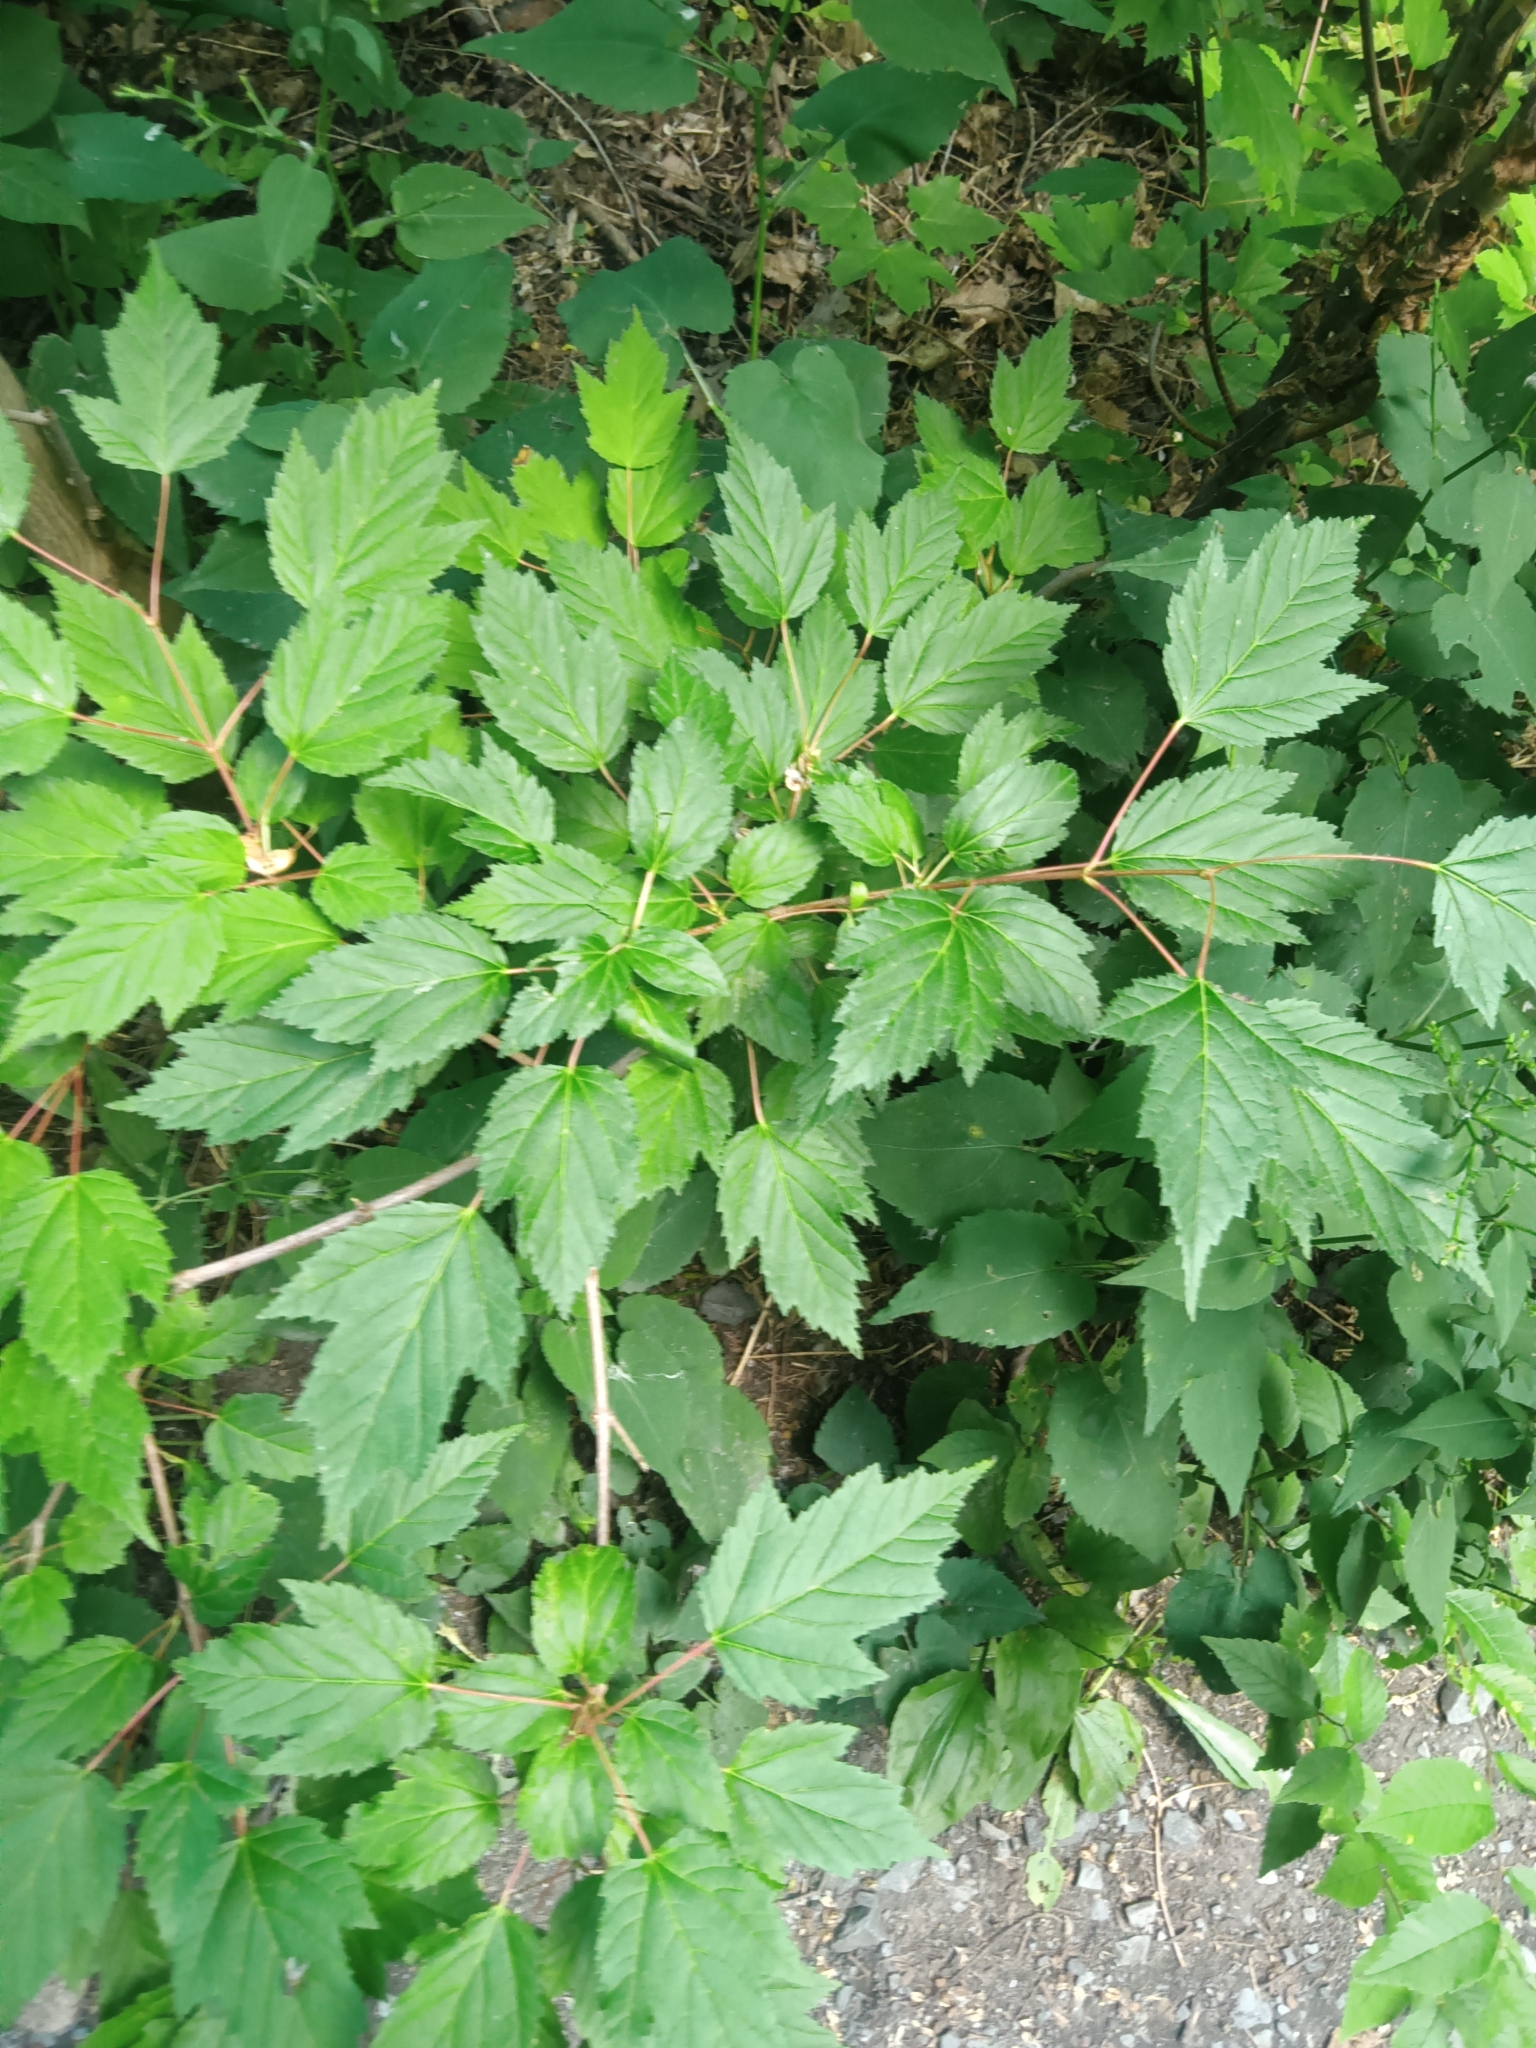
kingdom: Plantae
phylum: Tracheophyta
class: Magnoliopsida
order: Sapindales
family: Sapindaceae
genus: Acer
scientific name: Acer tataricum
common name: Tartar maple
